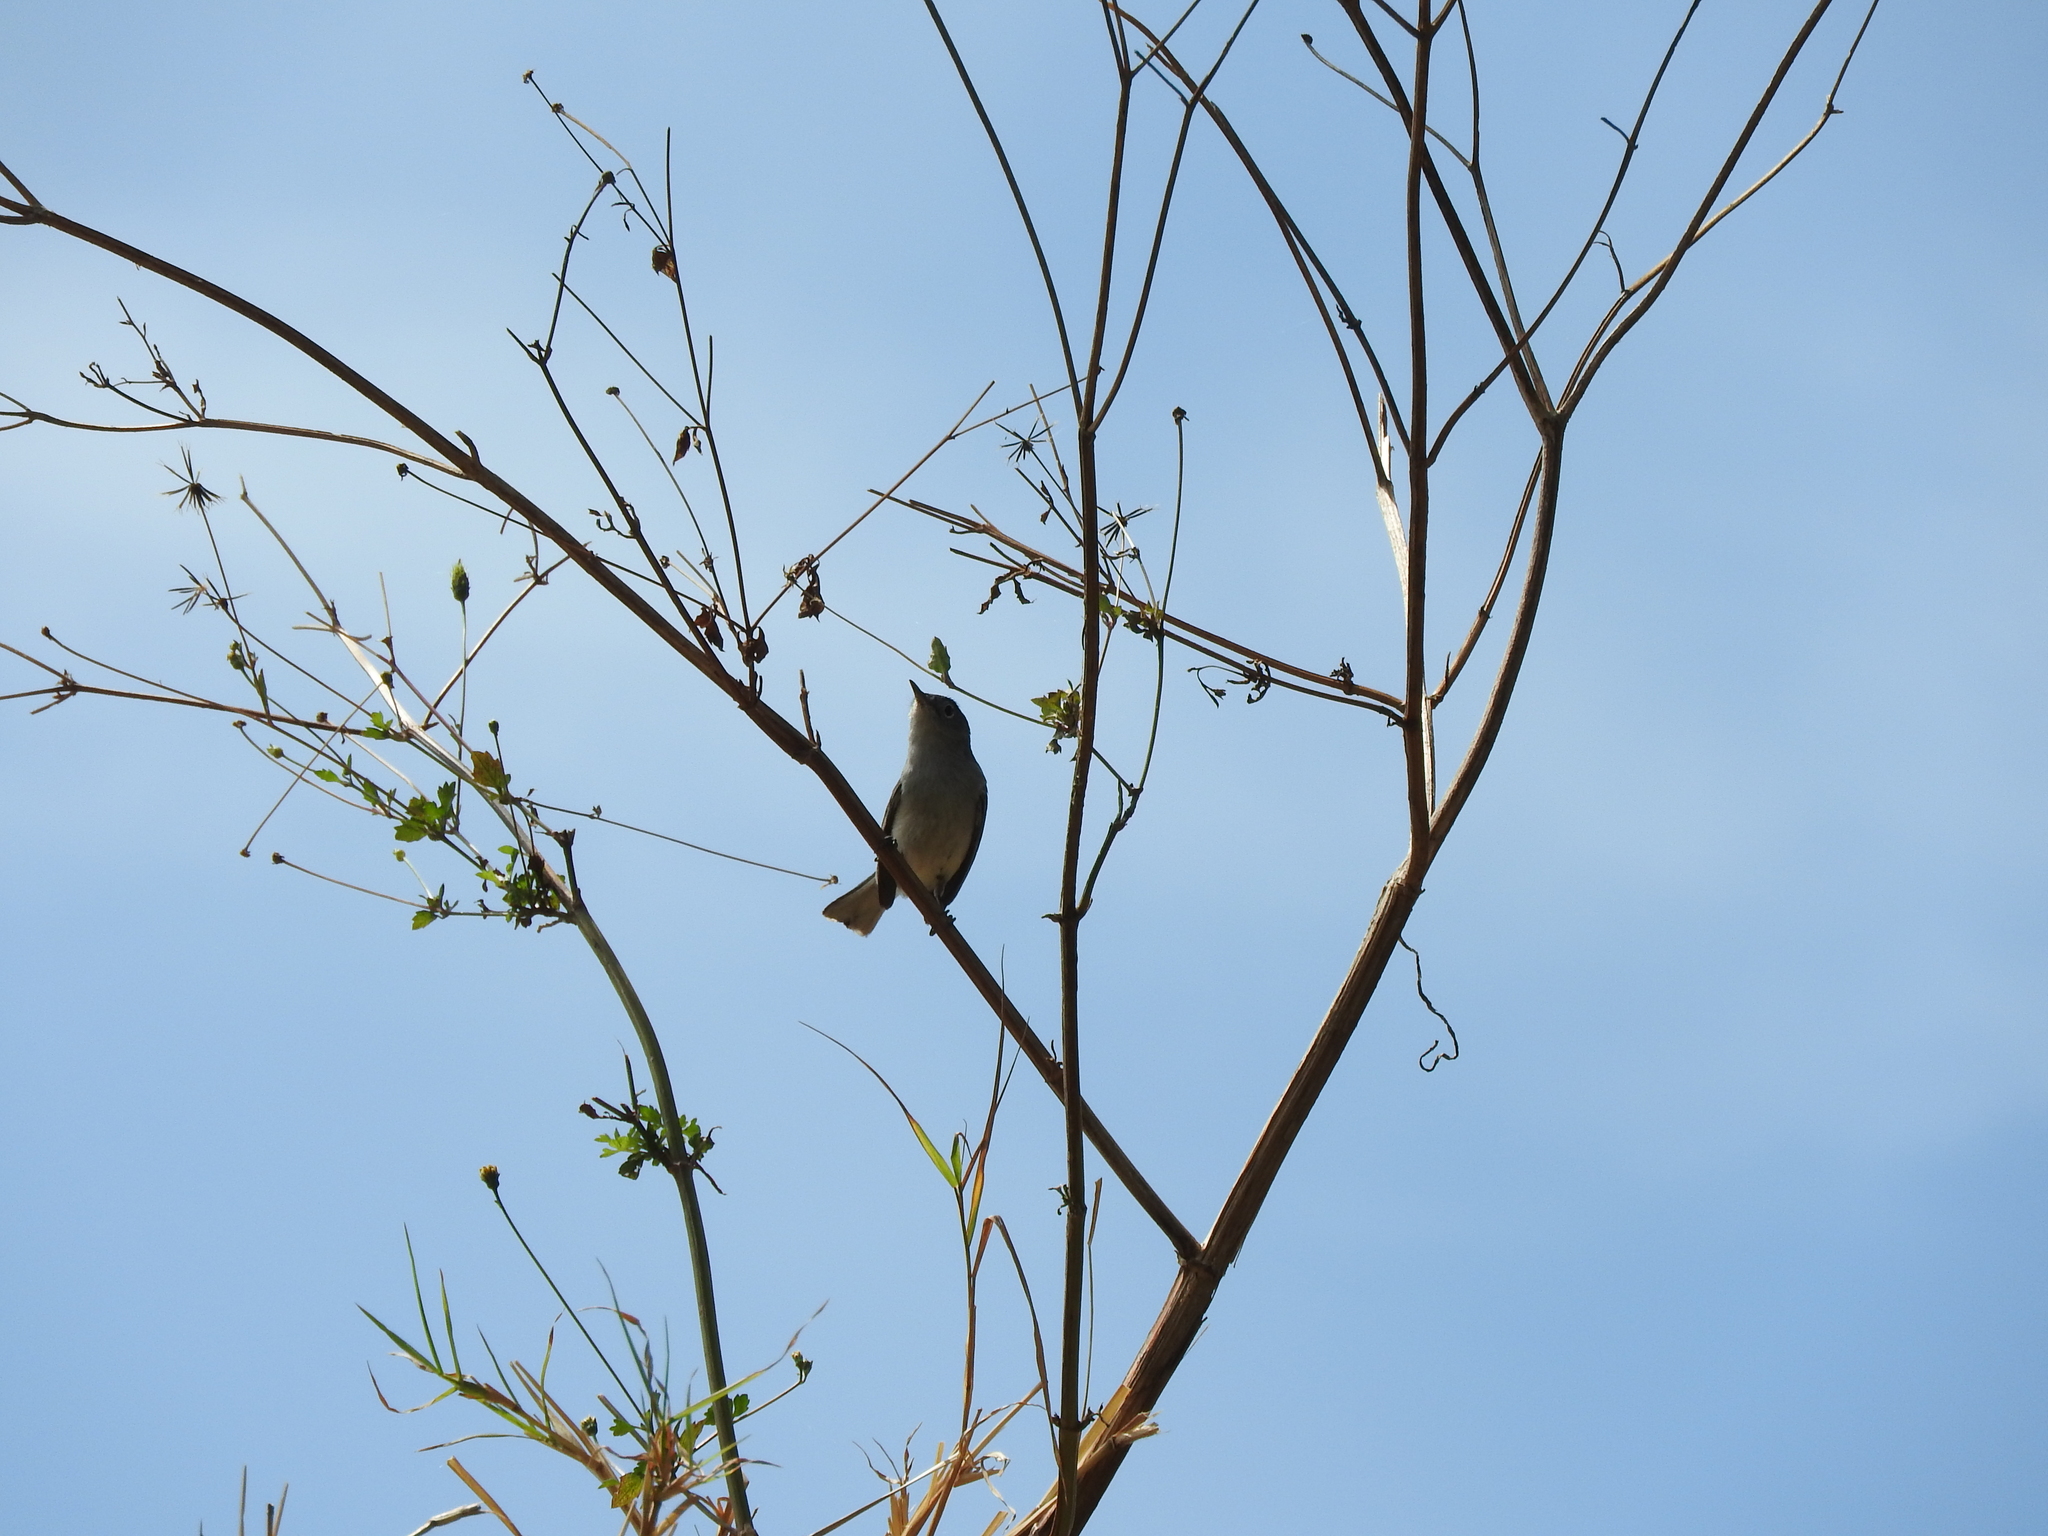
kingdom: Animalia
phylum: Chordata
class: Aves
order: Passeriformes
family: Polioptilidae
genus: Polioptila
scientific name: Polioptila caerulea
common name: Blue-gray gnatcatcher
